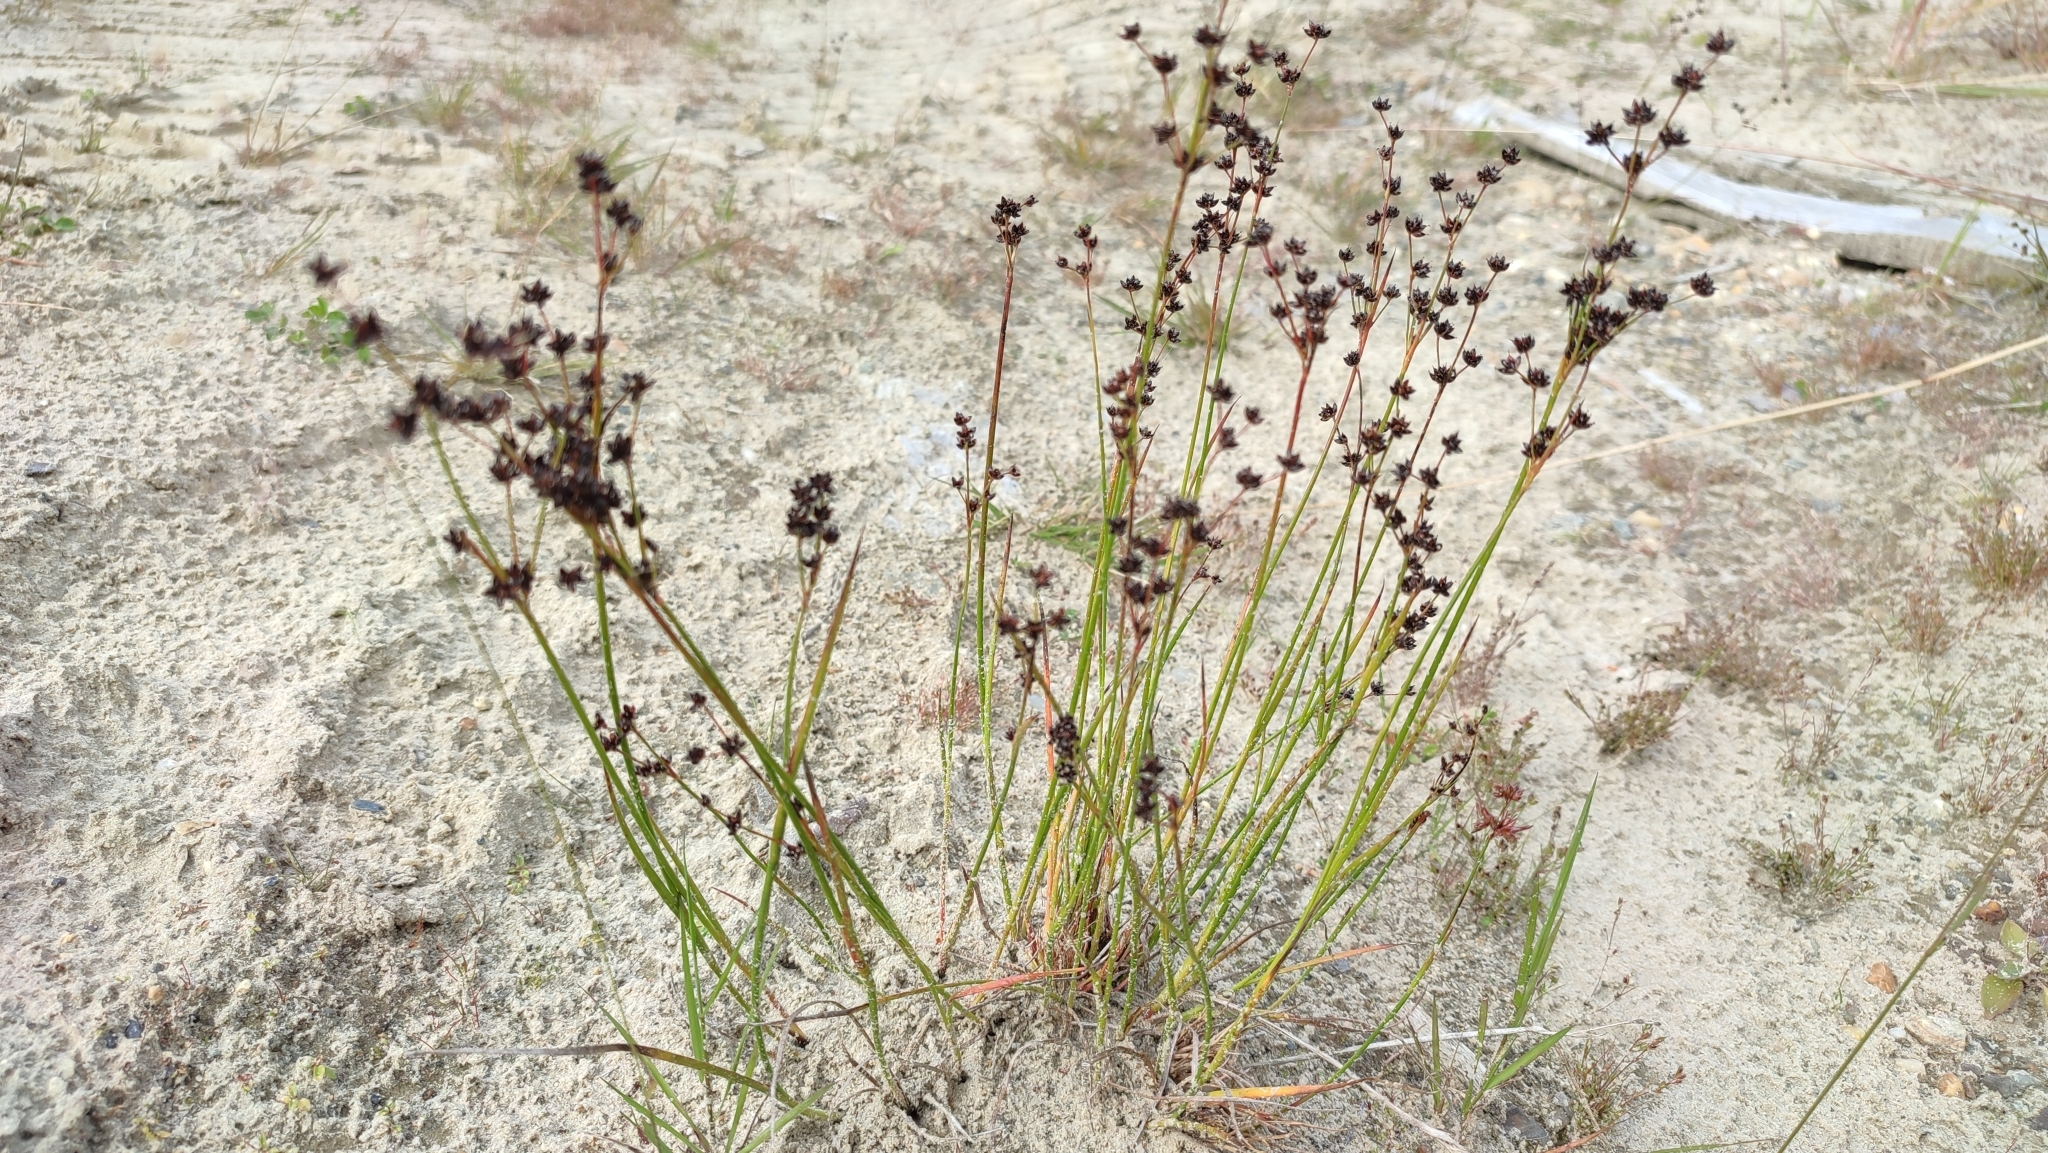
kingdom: Plantae
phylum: Tracheophyta
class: Liliopsida
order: Poales
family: Juncaceae
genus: Juncus
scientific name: Juncus alpinoarticulatus
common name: Alpine rush
